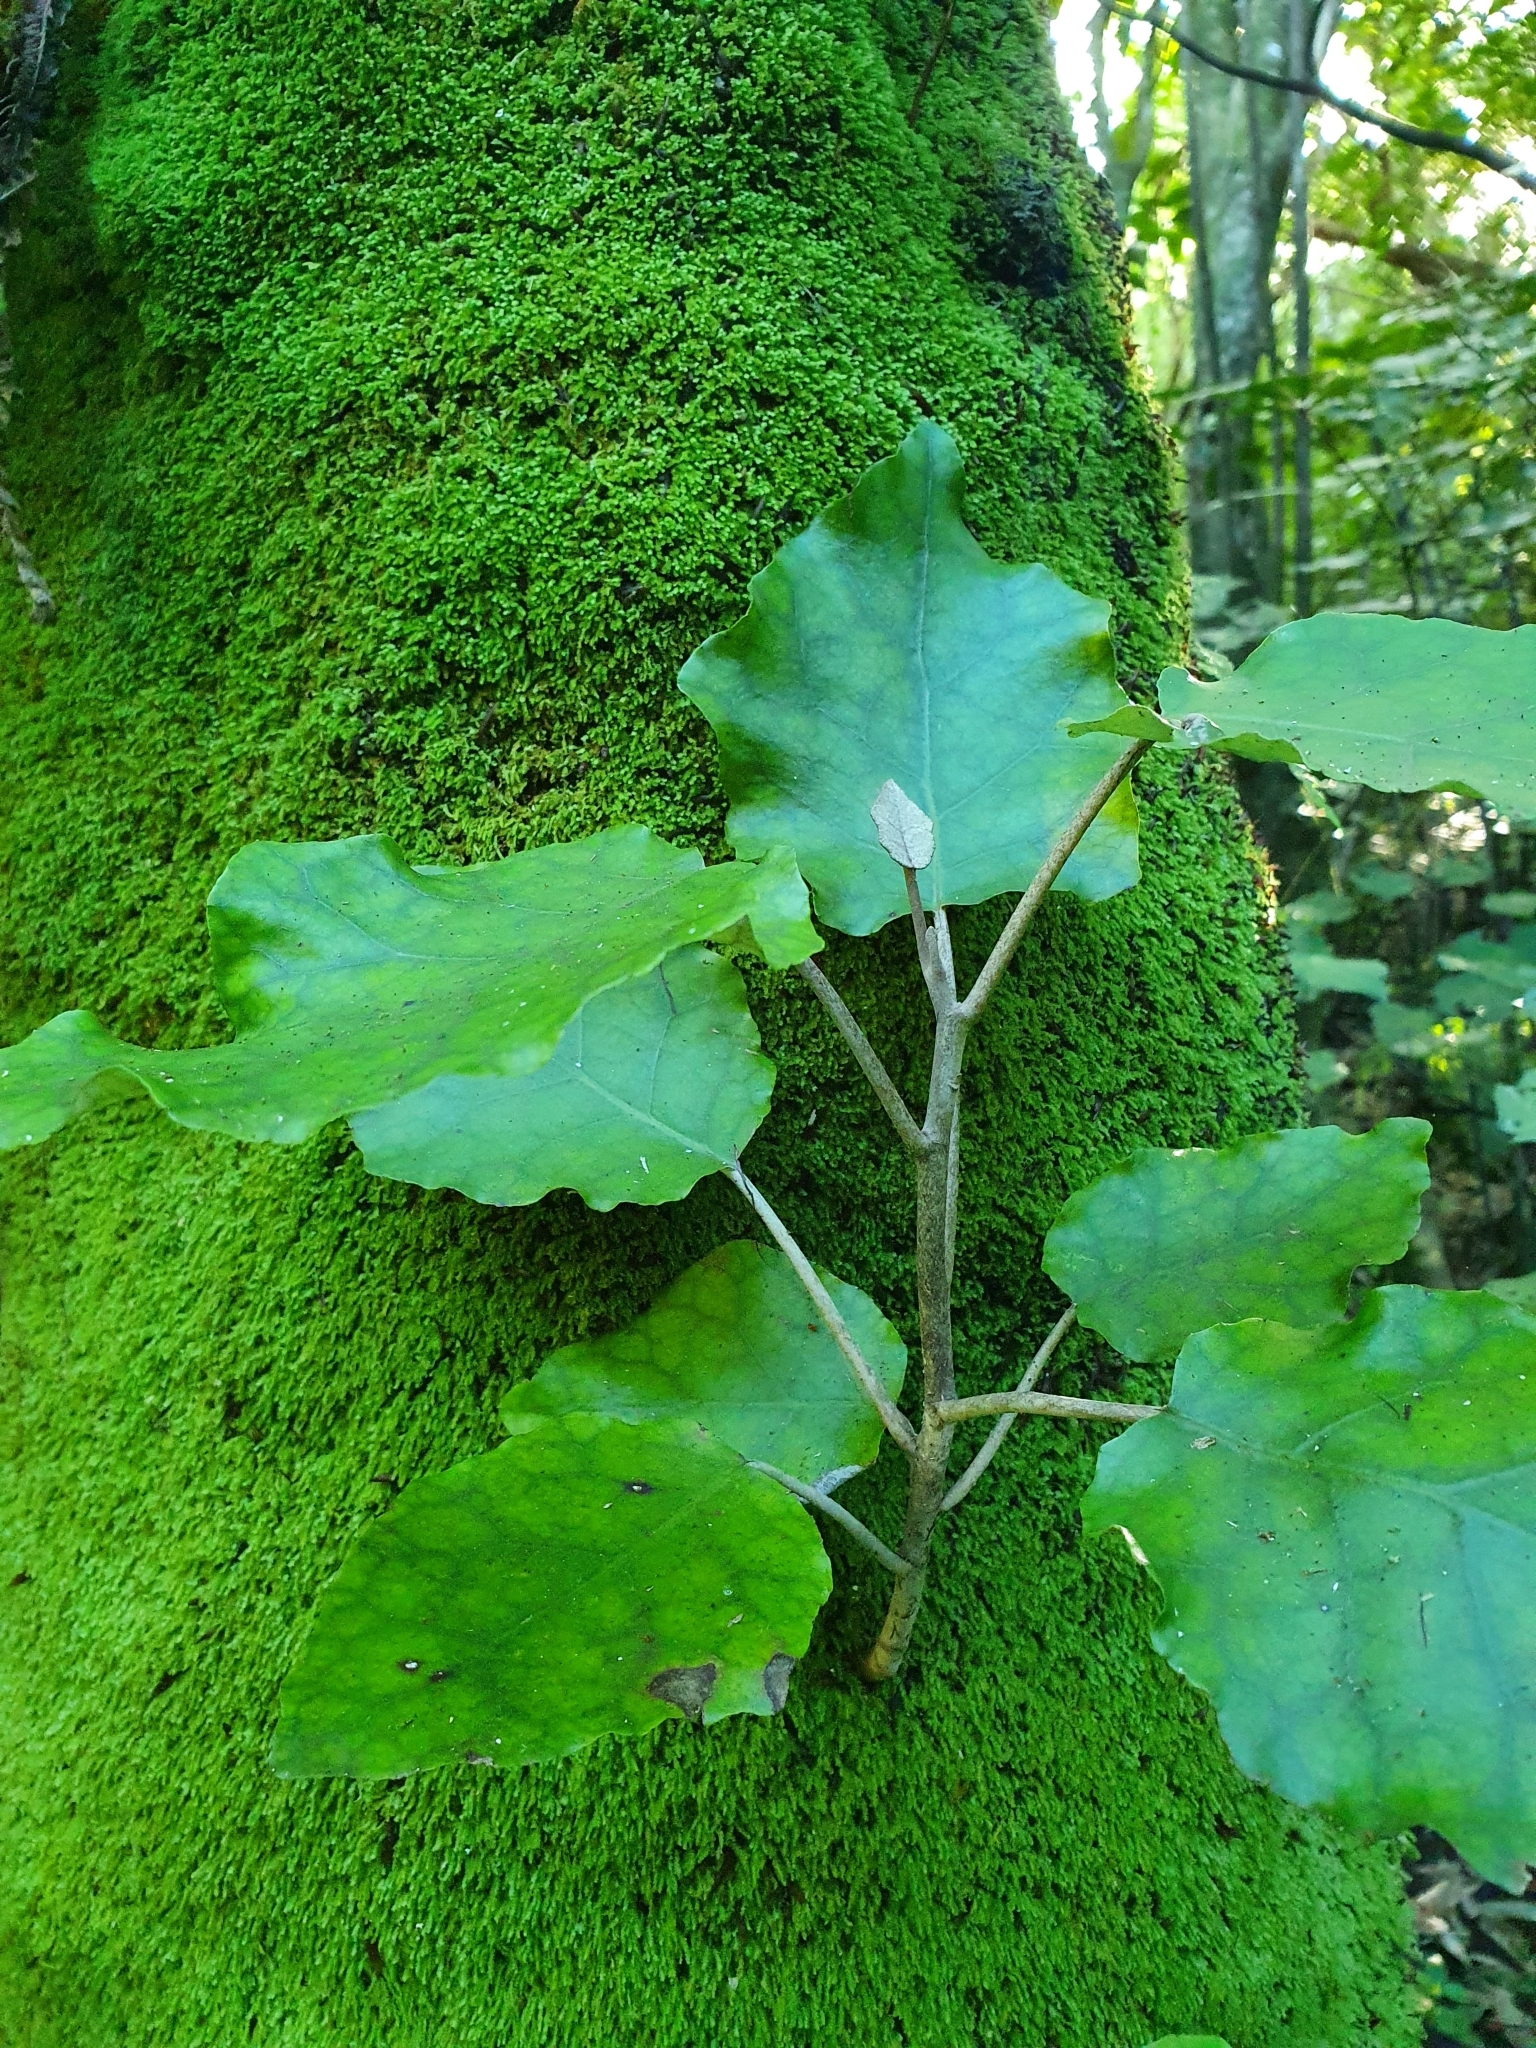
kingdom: Plantae
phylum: Tracheophyta
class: Magnoliopsida
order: Asterales
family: Asteraceae
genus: Brachyglottis
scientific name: Brachyglottis repanda
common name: Hedge ragwort
